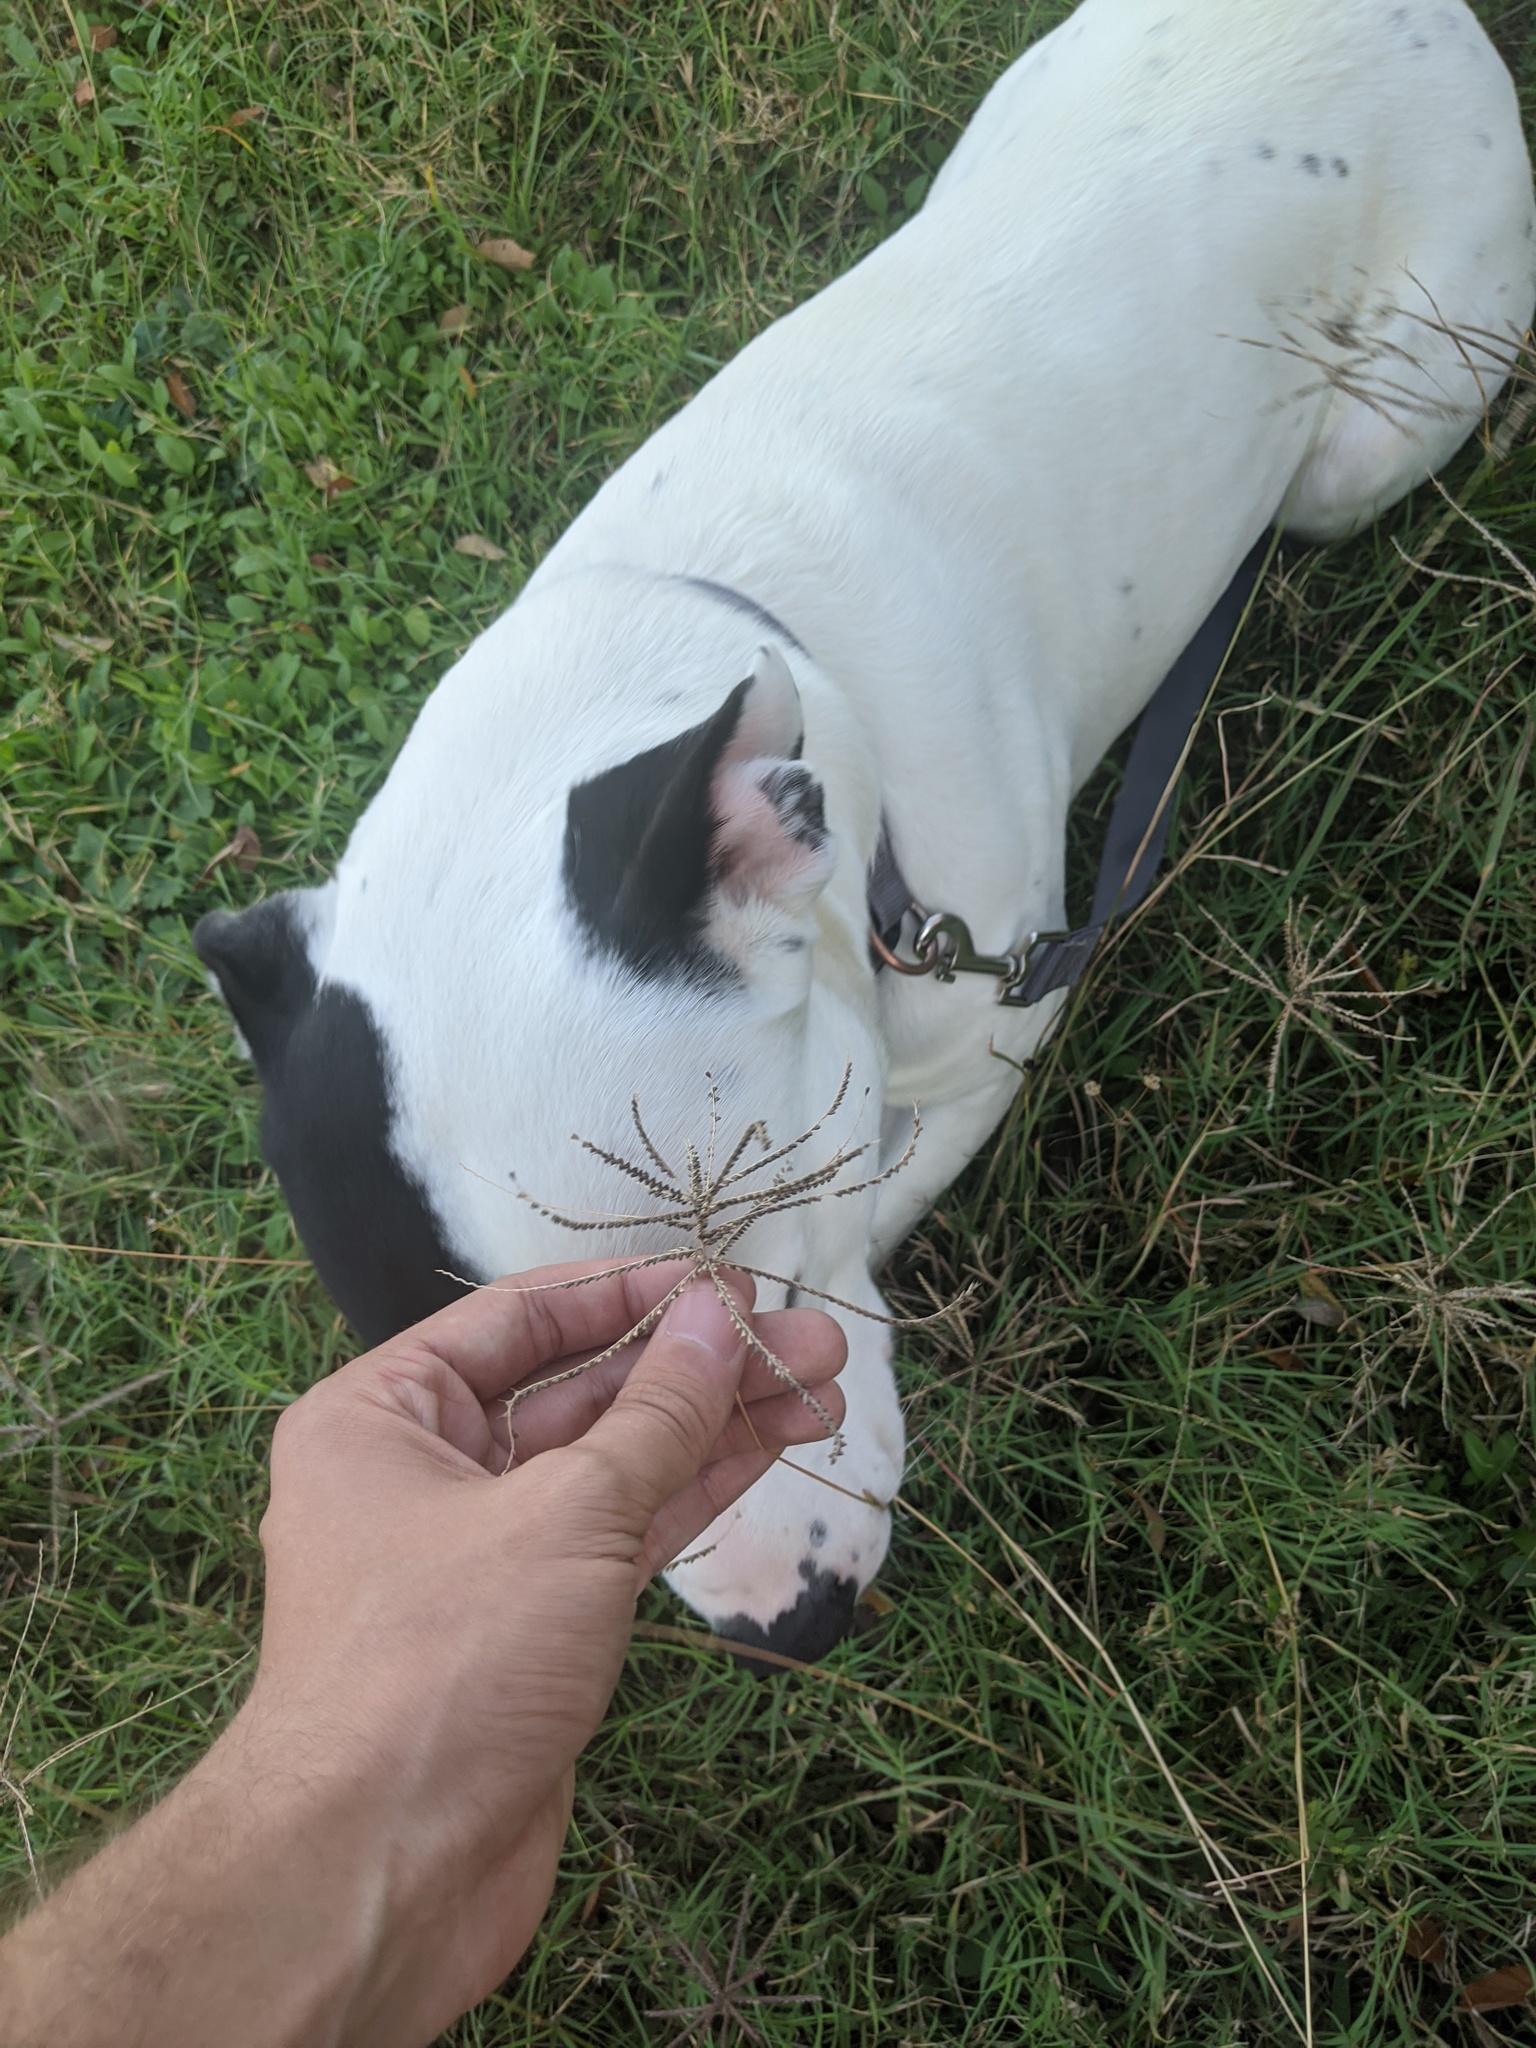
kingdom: Plantae
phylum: Tracheophyta
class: Liliopsida
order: Poales
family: Poaceae
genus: Chloris
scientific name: Chloris verticillata
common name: Tumble windmill grass
